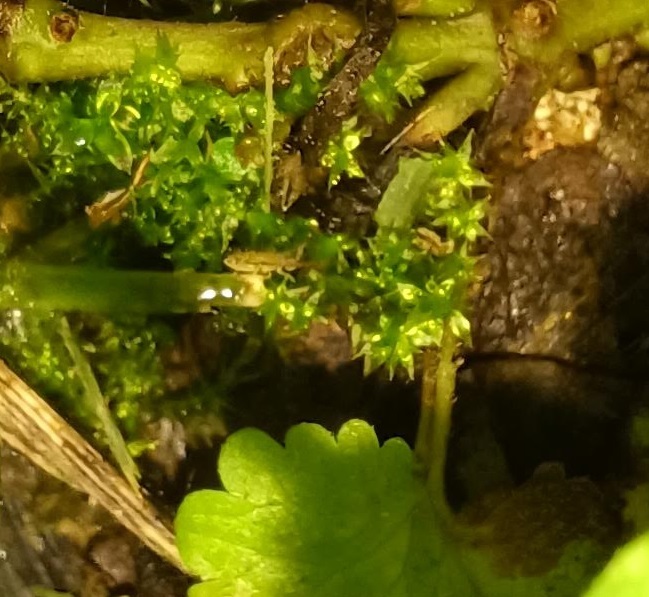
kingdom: Animalia
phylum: Arthropoda
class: Collembola
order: Entomobryomorpha
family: Entomobryidae
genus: Homidia
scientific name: Homidia socia
